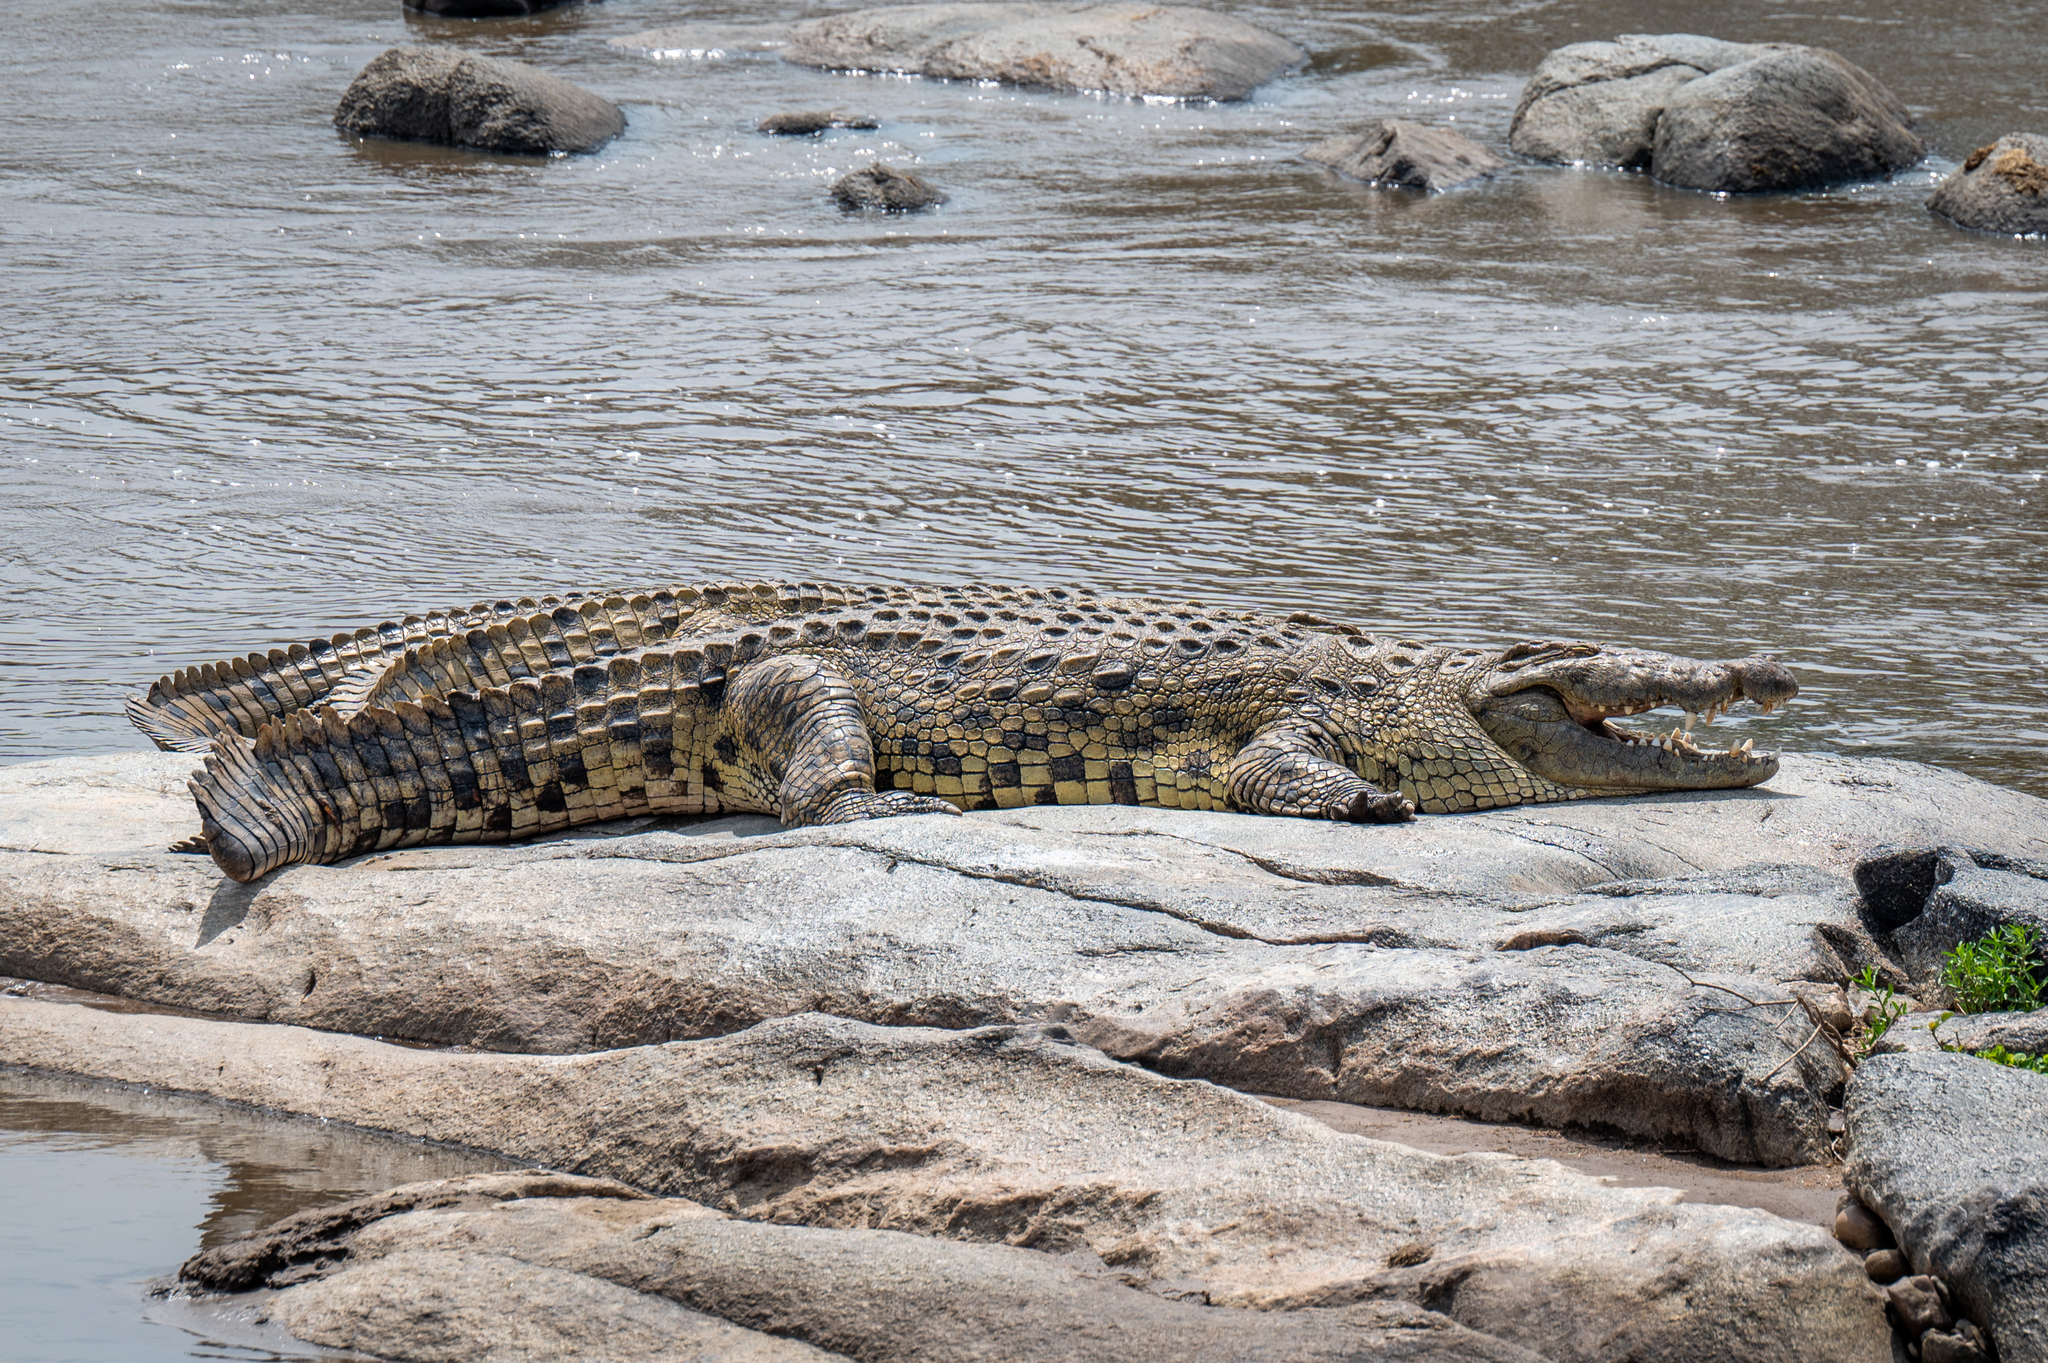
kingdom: Animalia
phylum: Chordata
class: Crocodylia
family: Crocodylidae
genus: Crocodylus
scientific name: Crocodylus niloticus
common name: Nile crocodile
